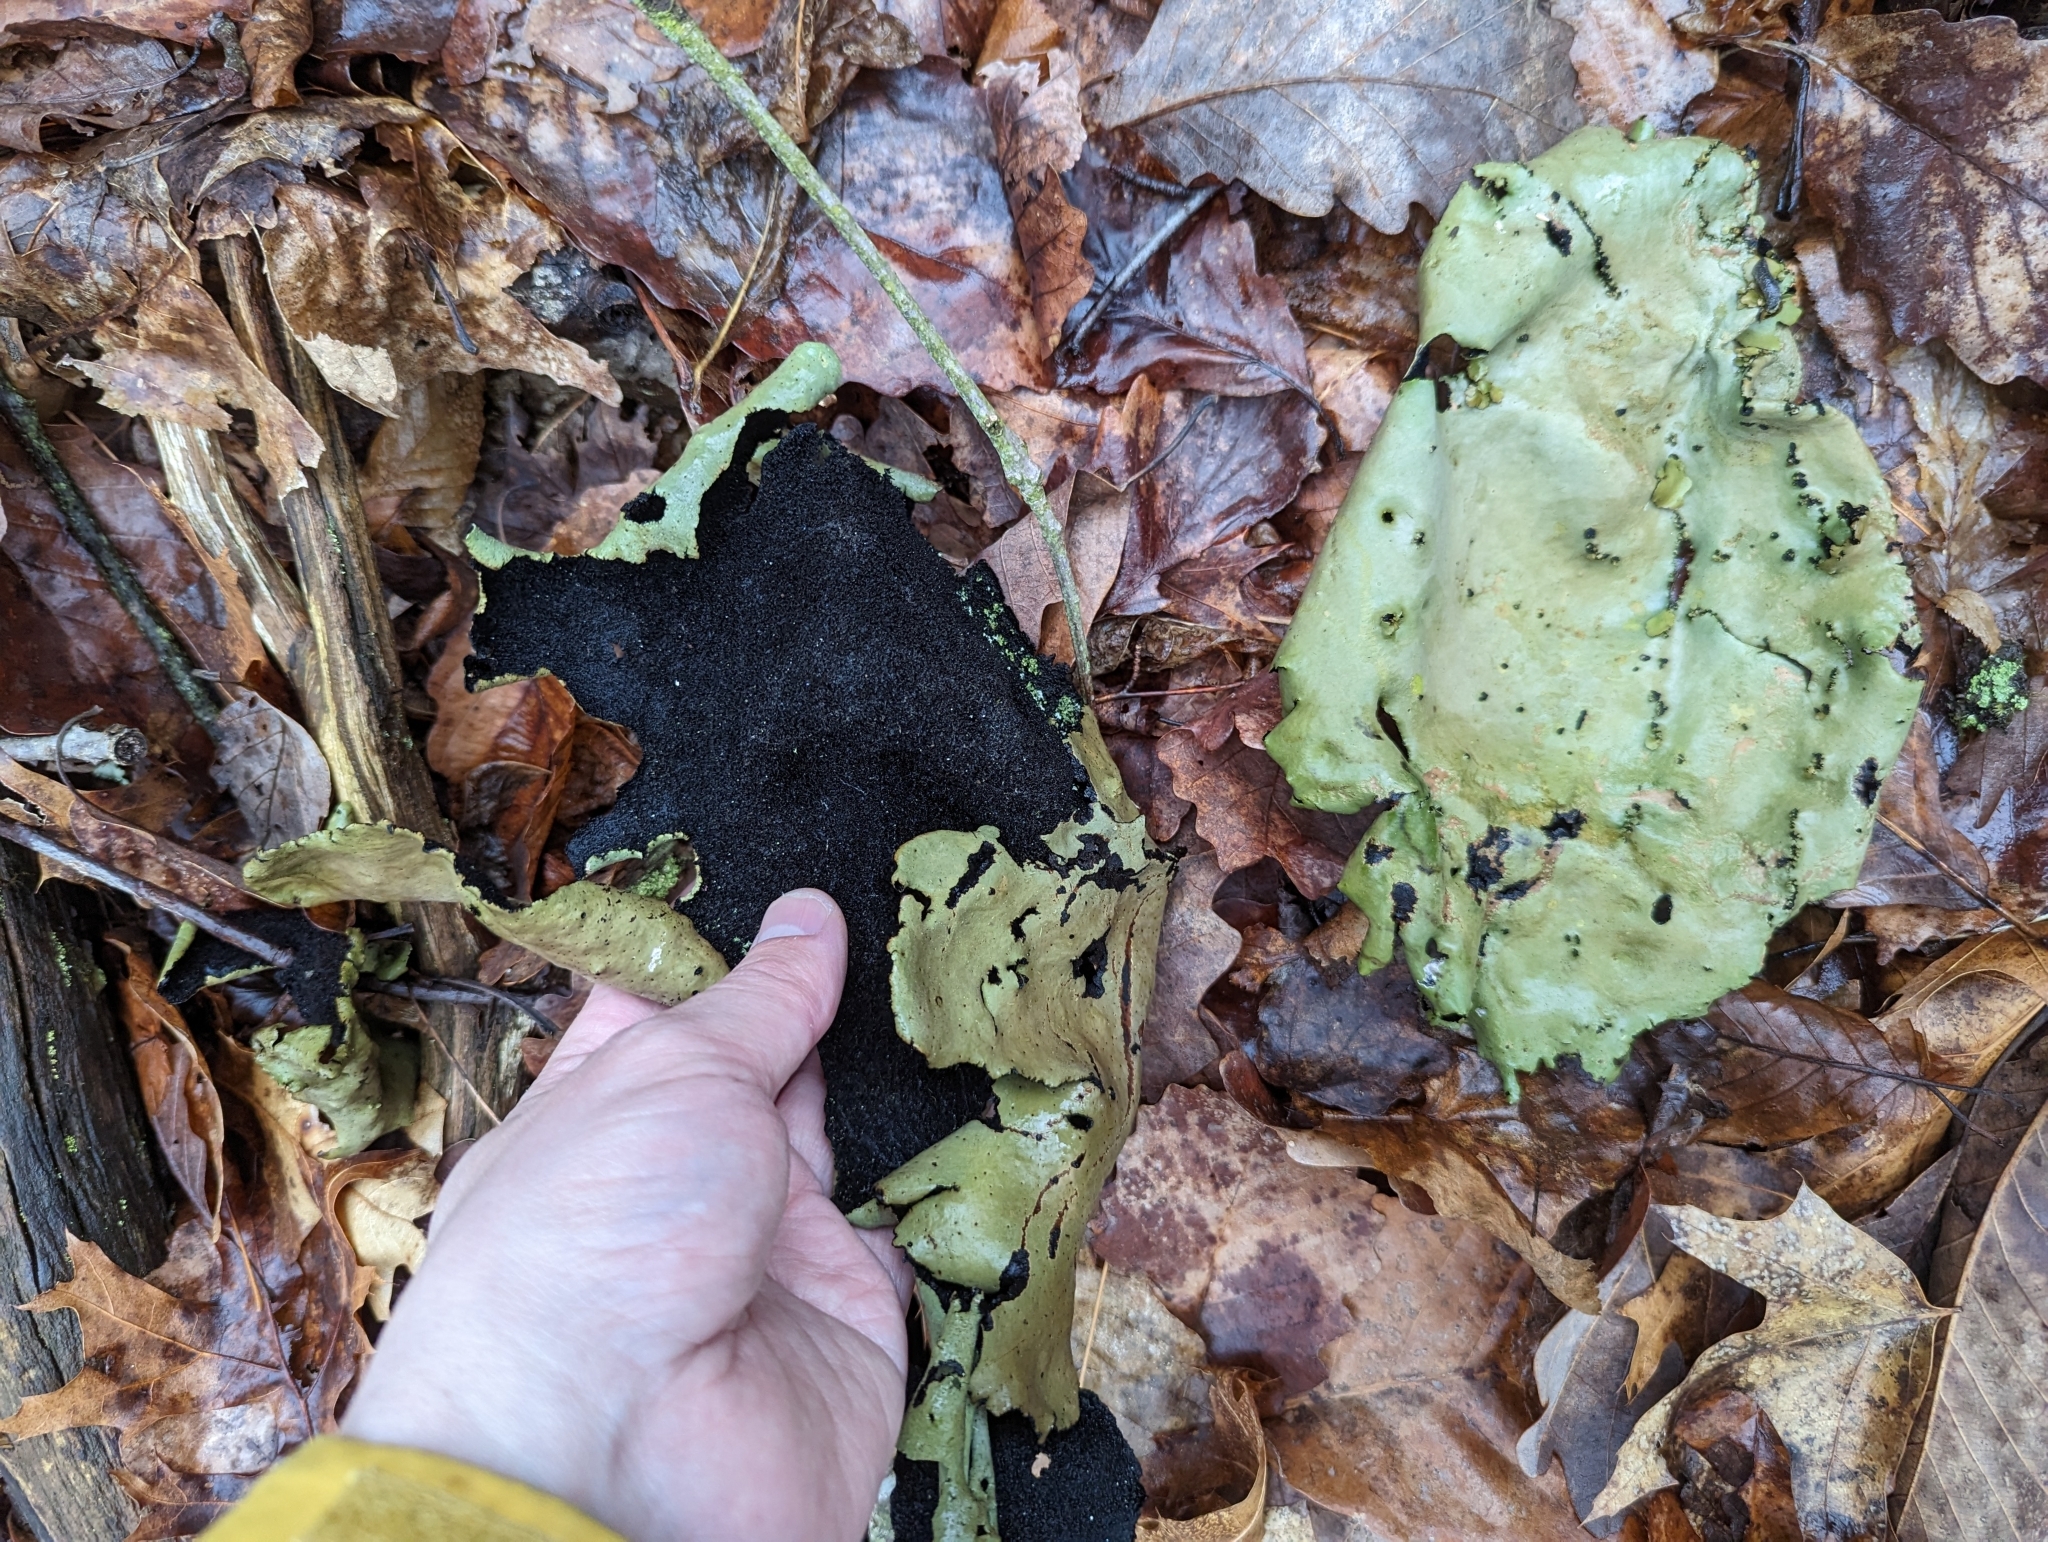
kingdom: Fungi
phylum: Ascomycota
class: Lecanoromycetes
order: Umbilicariales
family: Umbilicariaceae
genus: Umbilicaria
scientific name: Umbilicaria mammulata
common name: Smooth rock tripe
